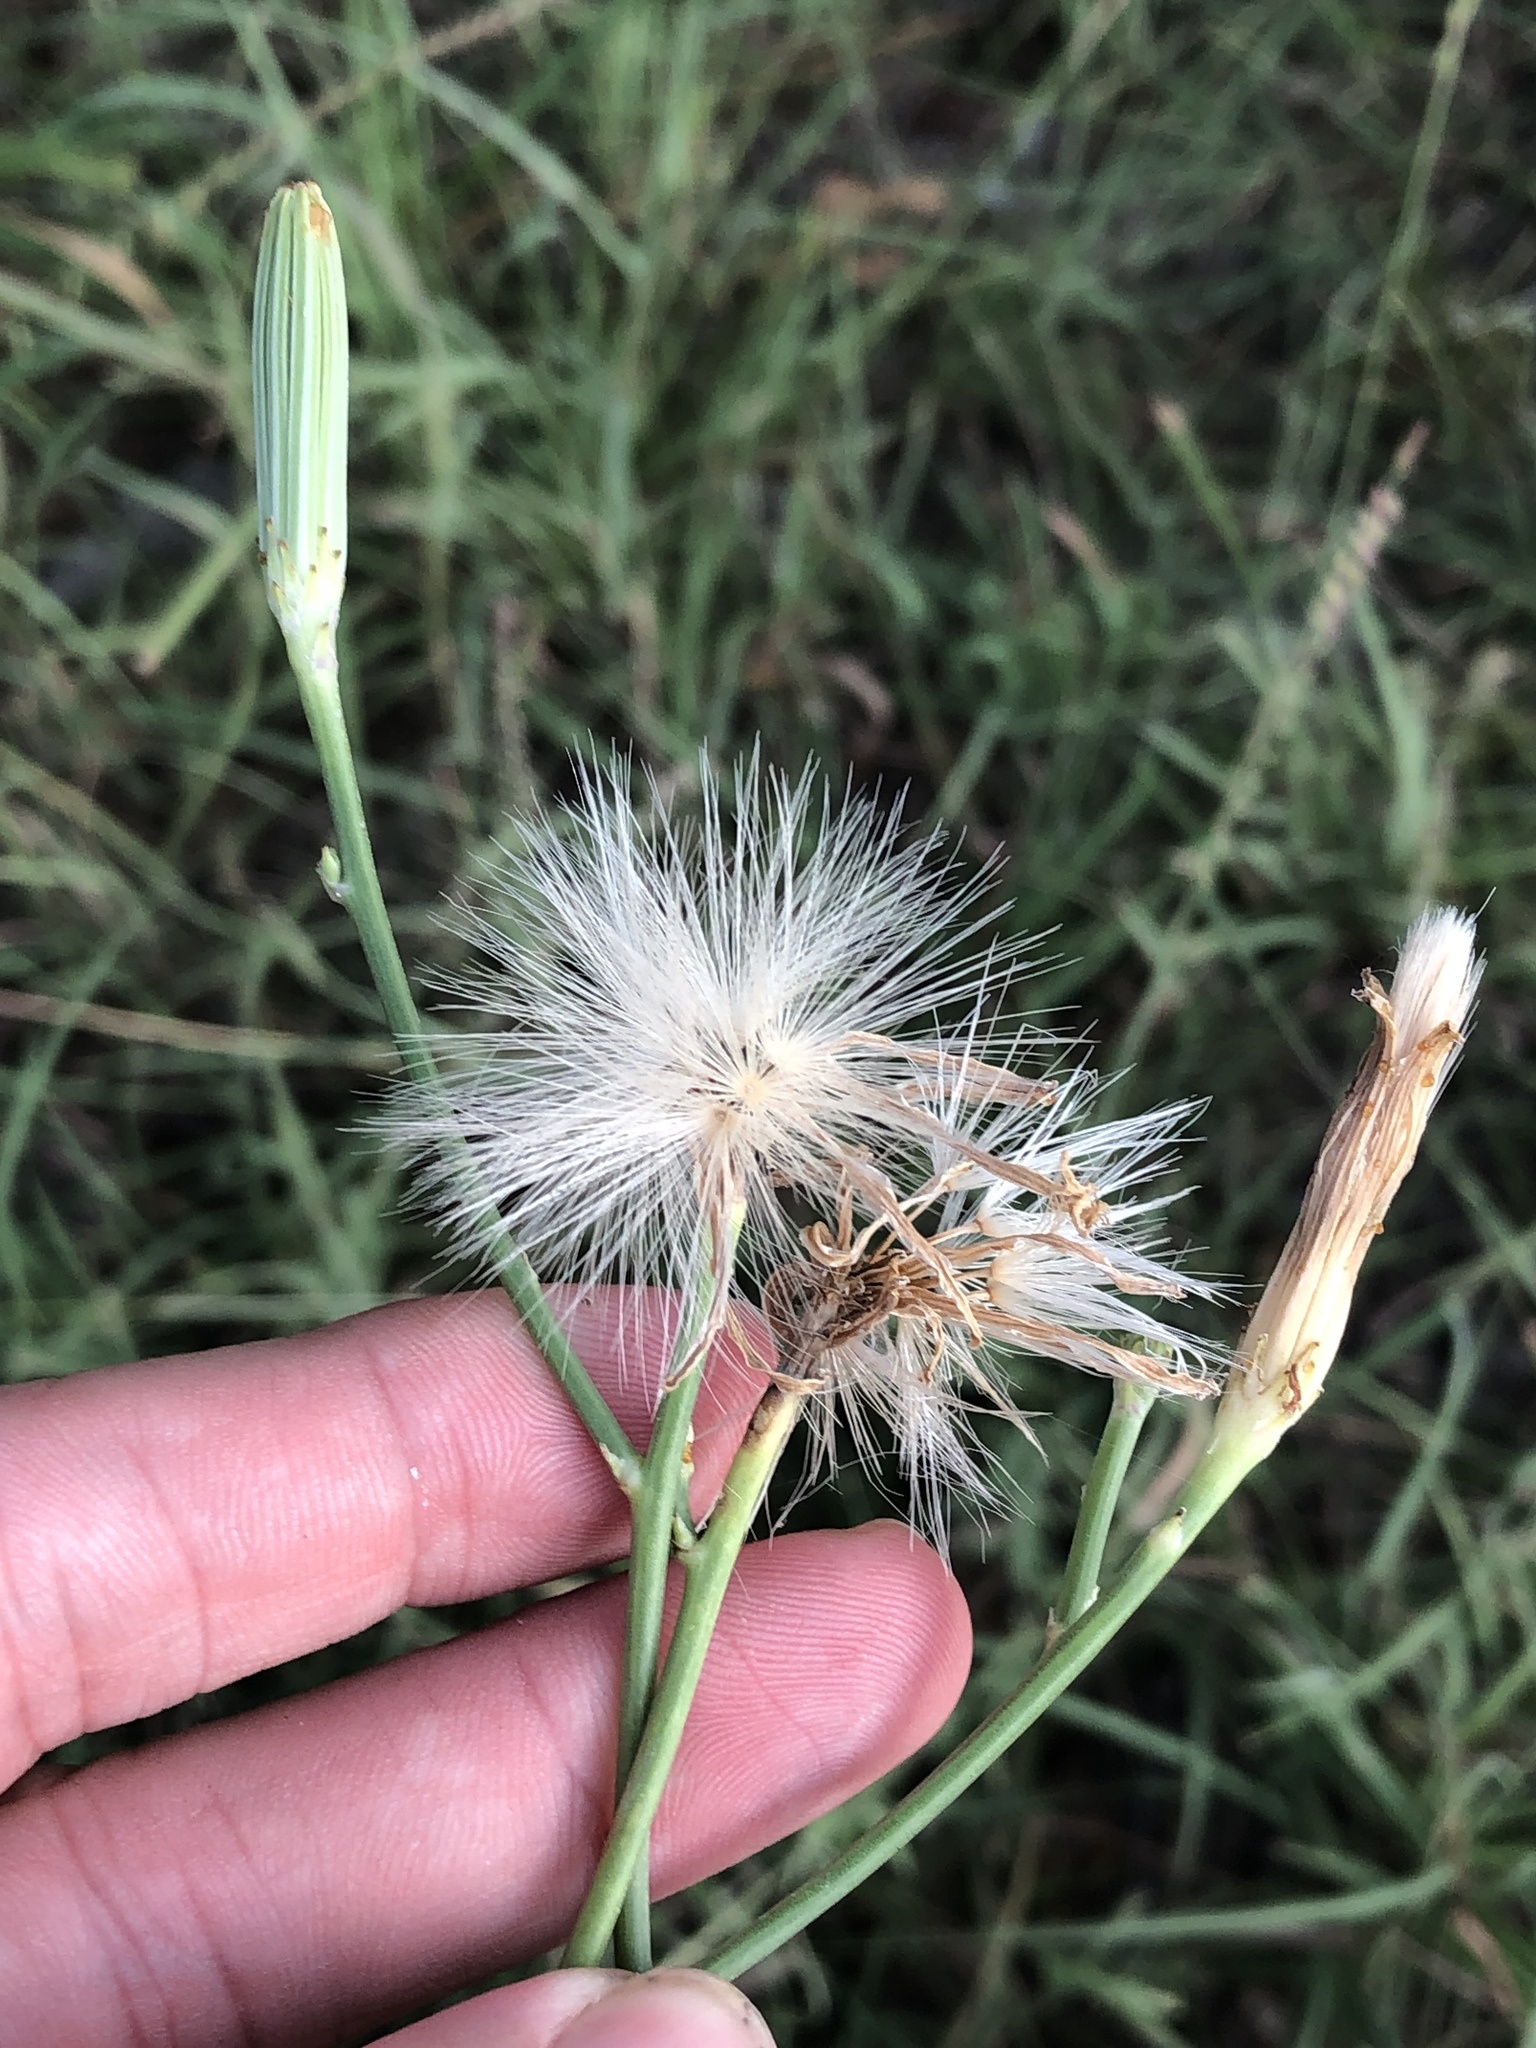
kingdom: Plantae
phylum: Tracheophyta
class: Magnoliopsida
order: Asterales
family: Asteraceae
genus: Lygodesmia
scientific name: Lygodesmia texana
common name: Texas skeleton-plant
